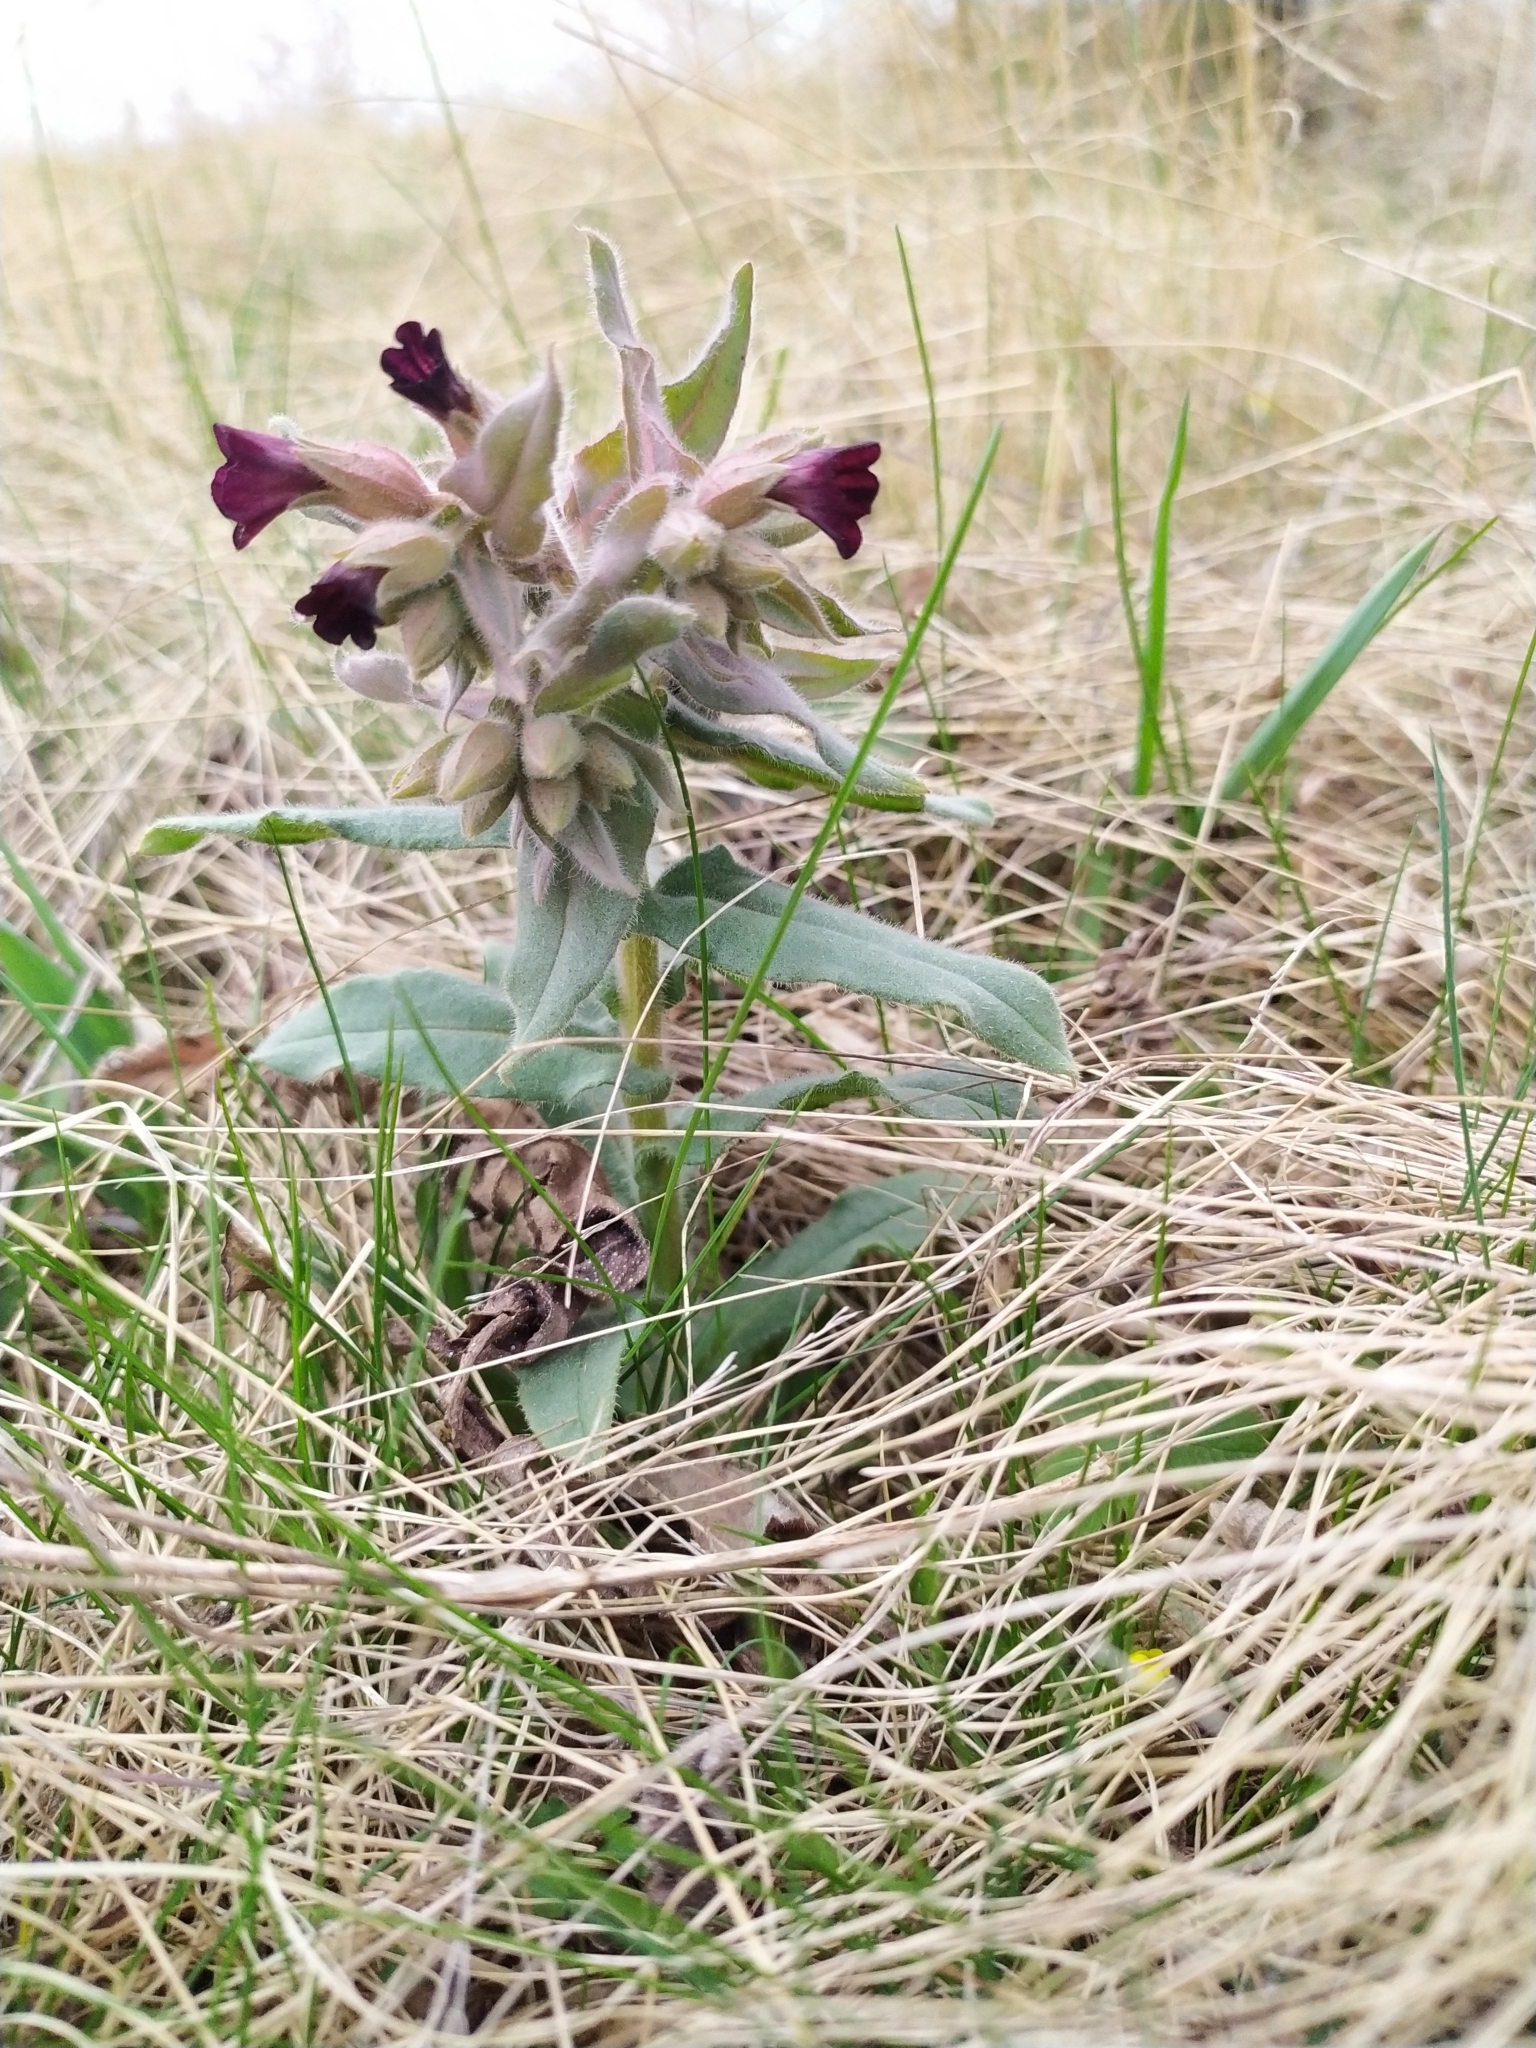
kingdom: Plantae
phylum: Tracheophyta
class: Magnoliopsida
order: Boraginales
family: Boraginaceae
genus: Nonea
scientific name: Nonea pulla
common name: Brown nonea
